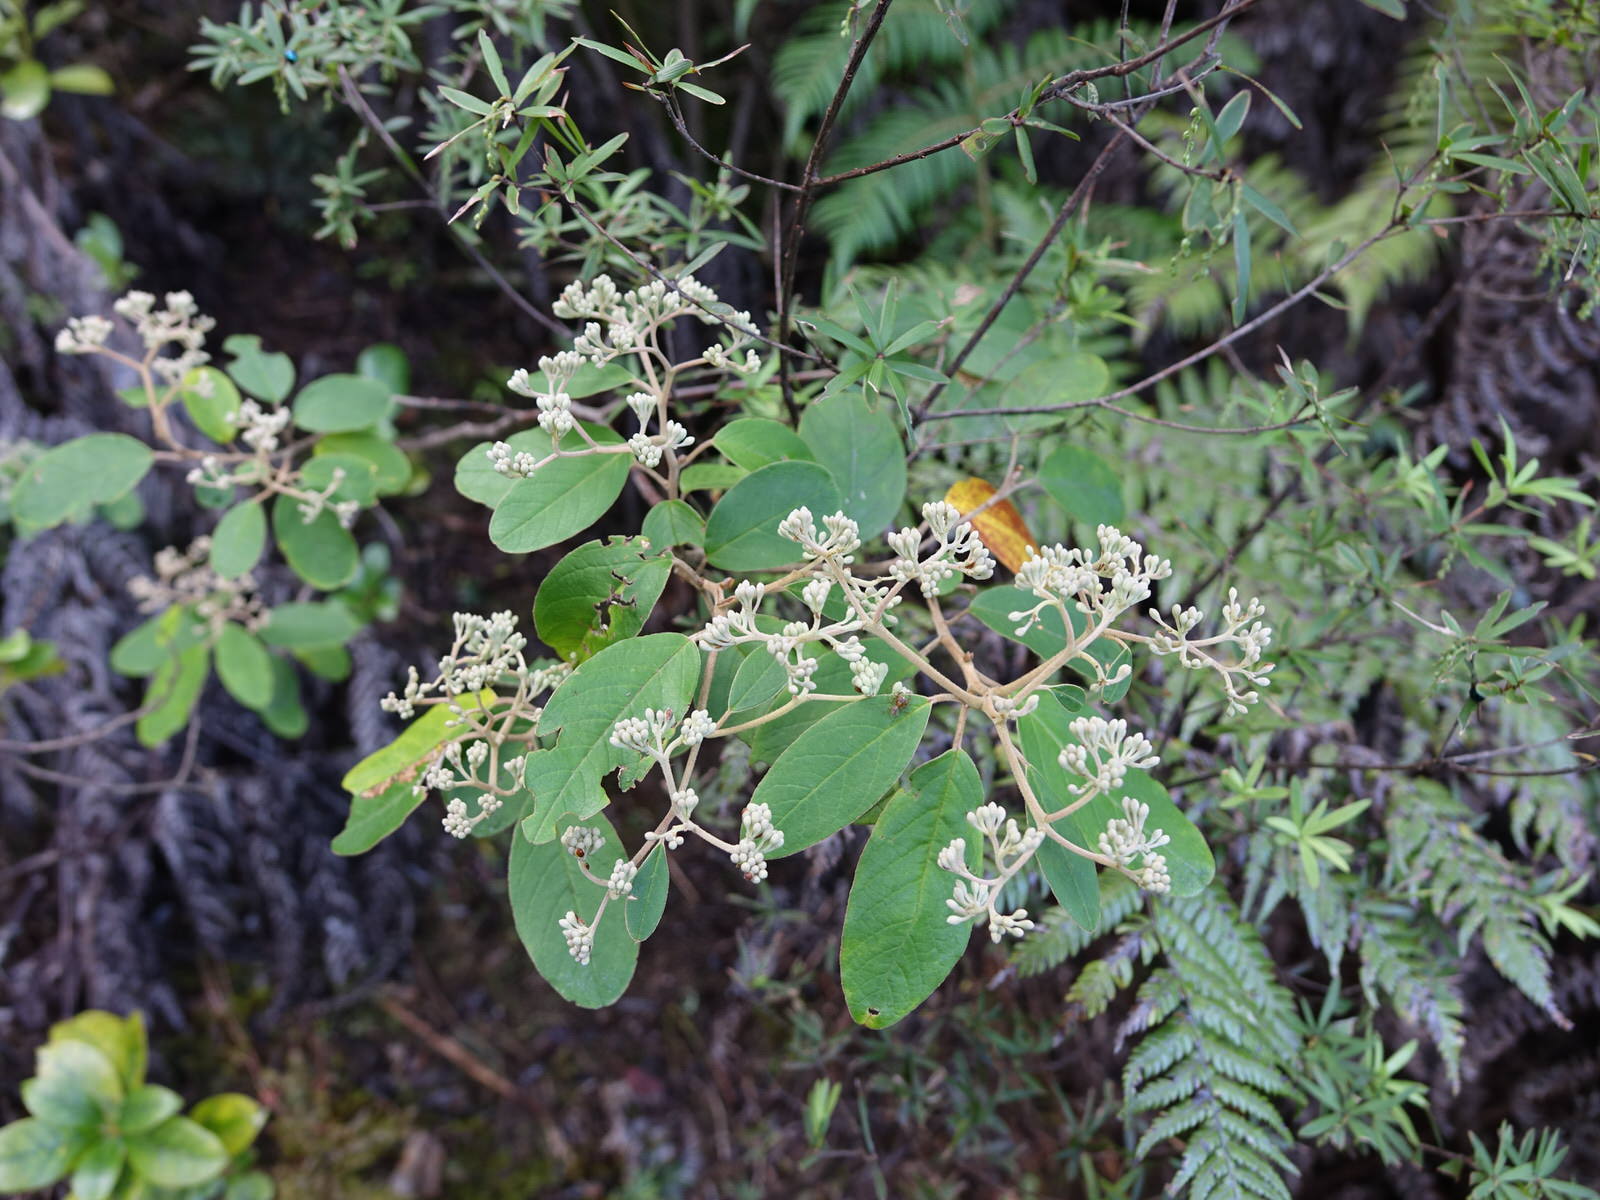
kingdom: Plantae
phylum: Tracheophyta
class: Magnoliopsida
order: Rosales
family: Rhamnaceae
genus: Pomaderris
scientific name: Pomaderris kumeraho
